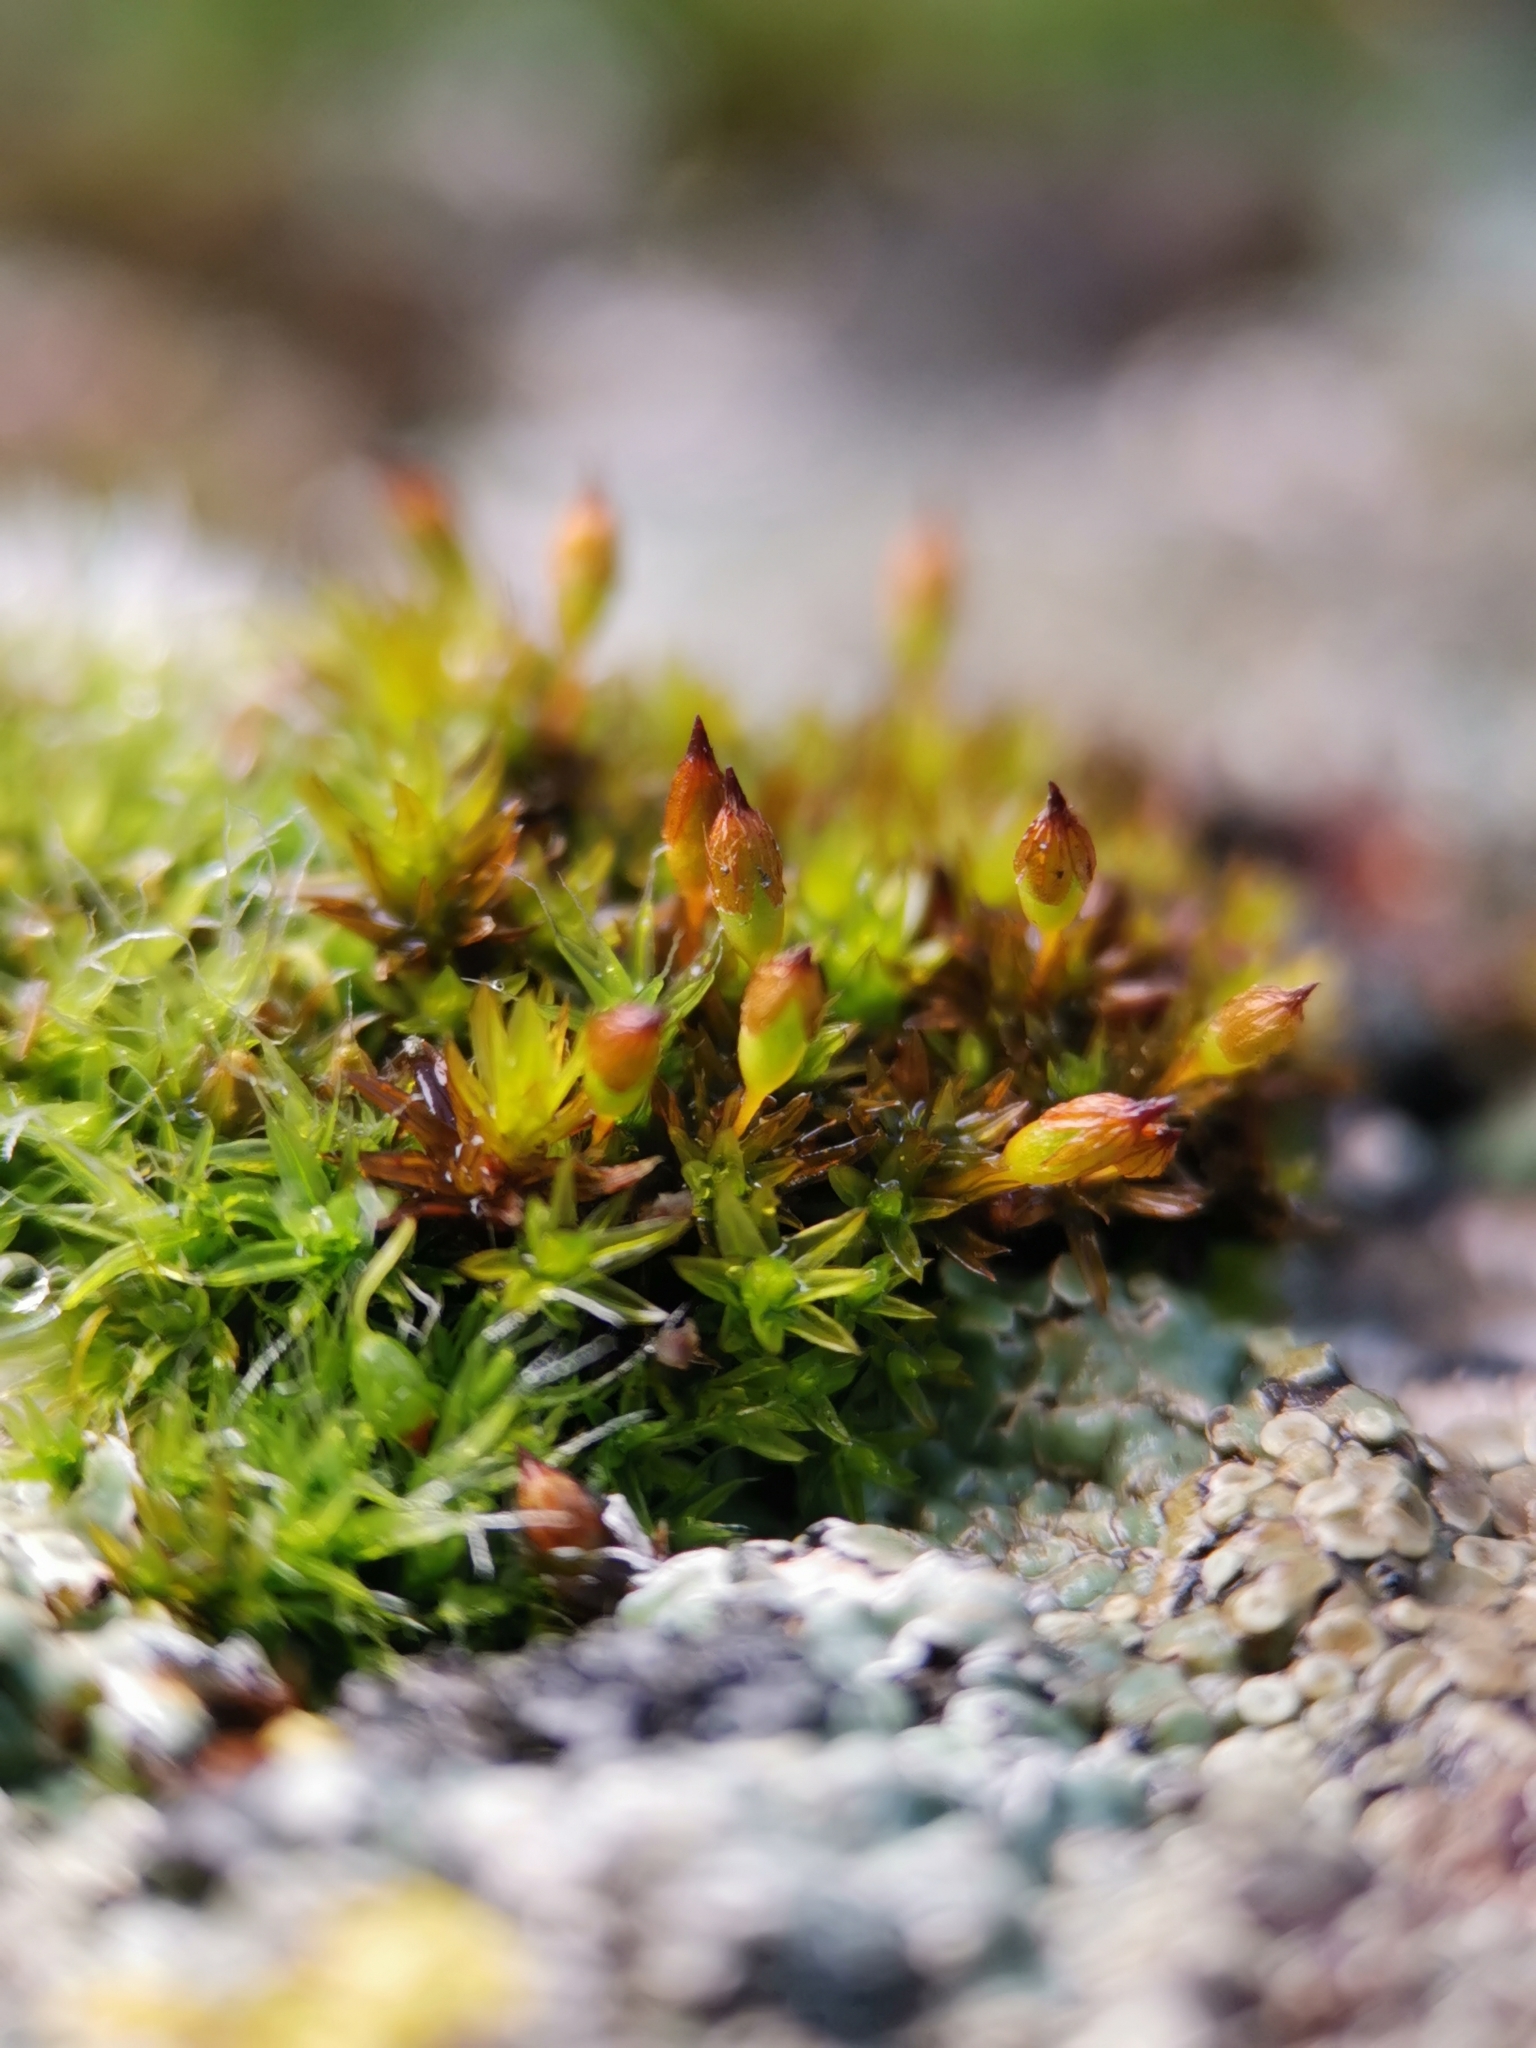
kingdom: Plantae
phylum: Bryophyta
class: Bryopsida
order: Orthotrichales
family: Orthotrichaceae
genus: Orthotrichum
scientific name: Orthotrichum anomalum
